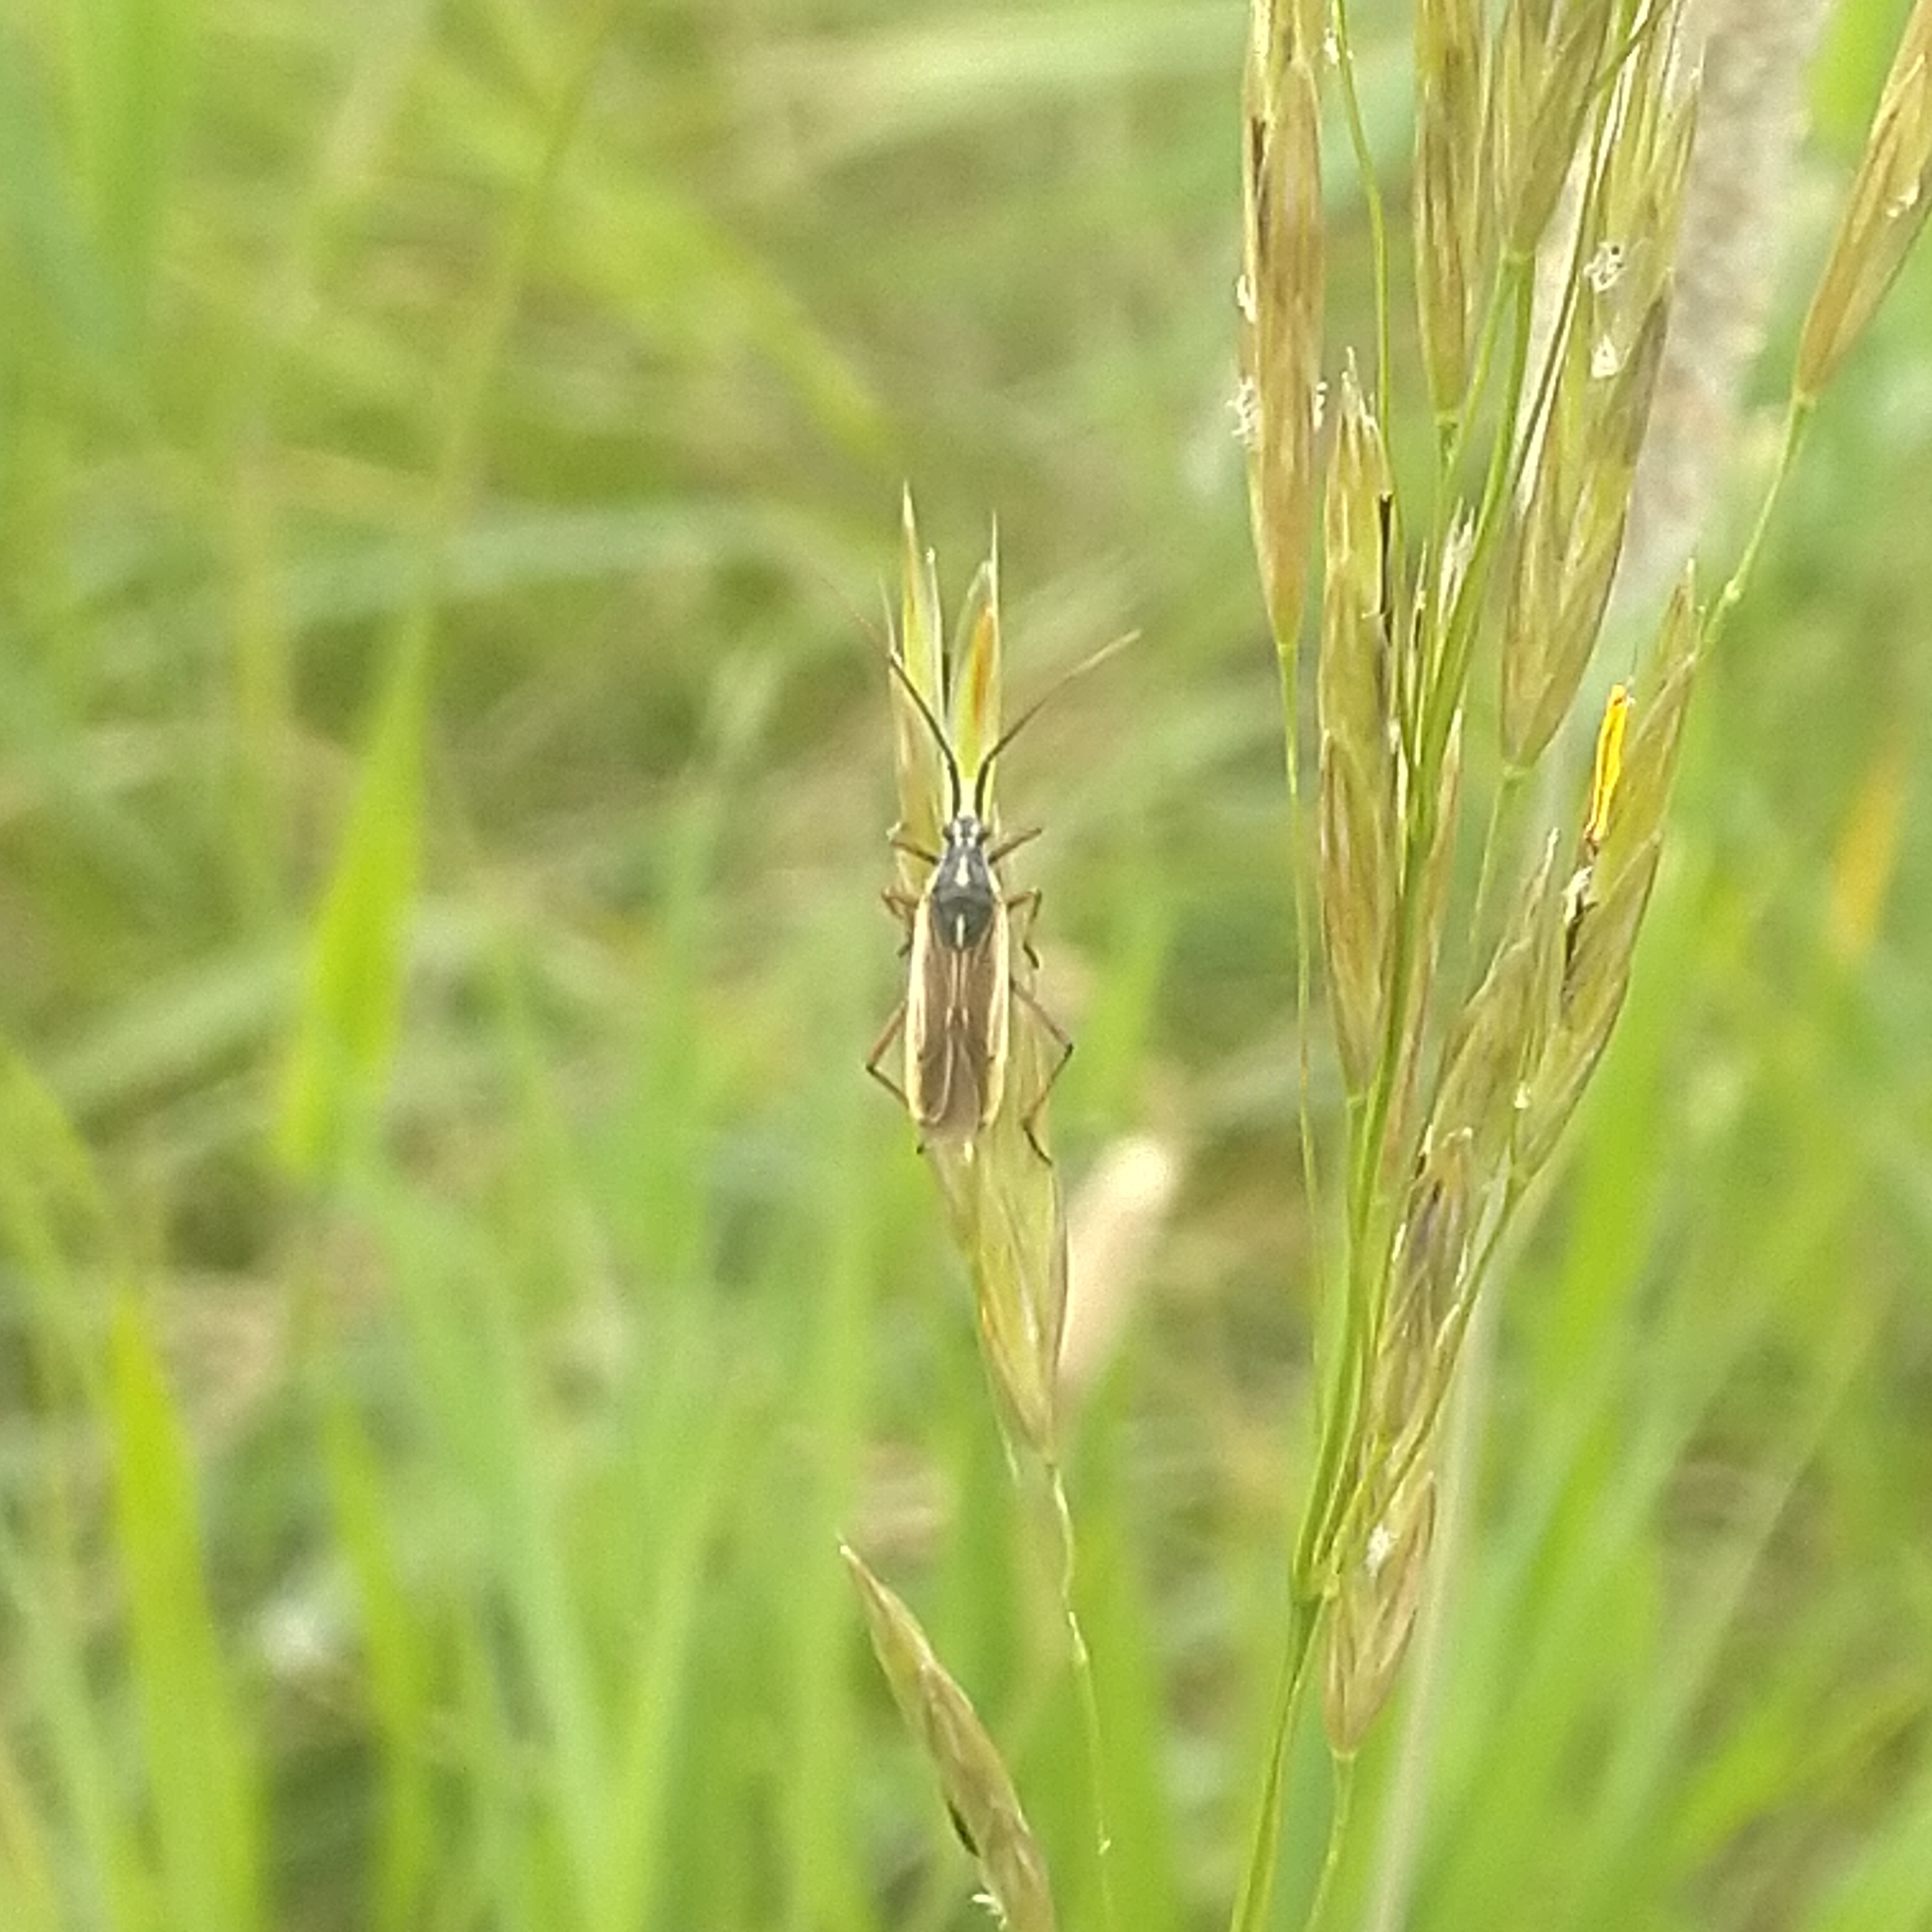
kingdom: Animalia
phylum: Arthropoda
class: Insecta
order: Hemiptera
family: Miridae
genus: Leptopterna
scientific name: Leptopterna dolabrata
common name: Meadow plant bug
